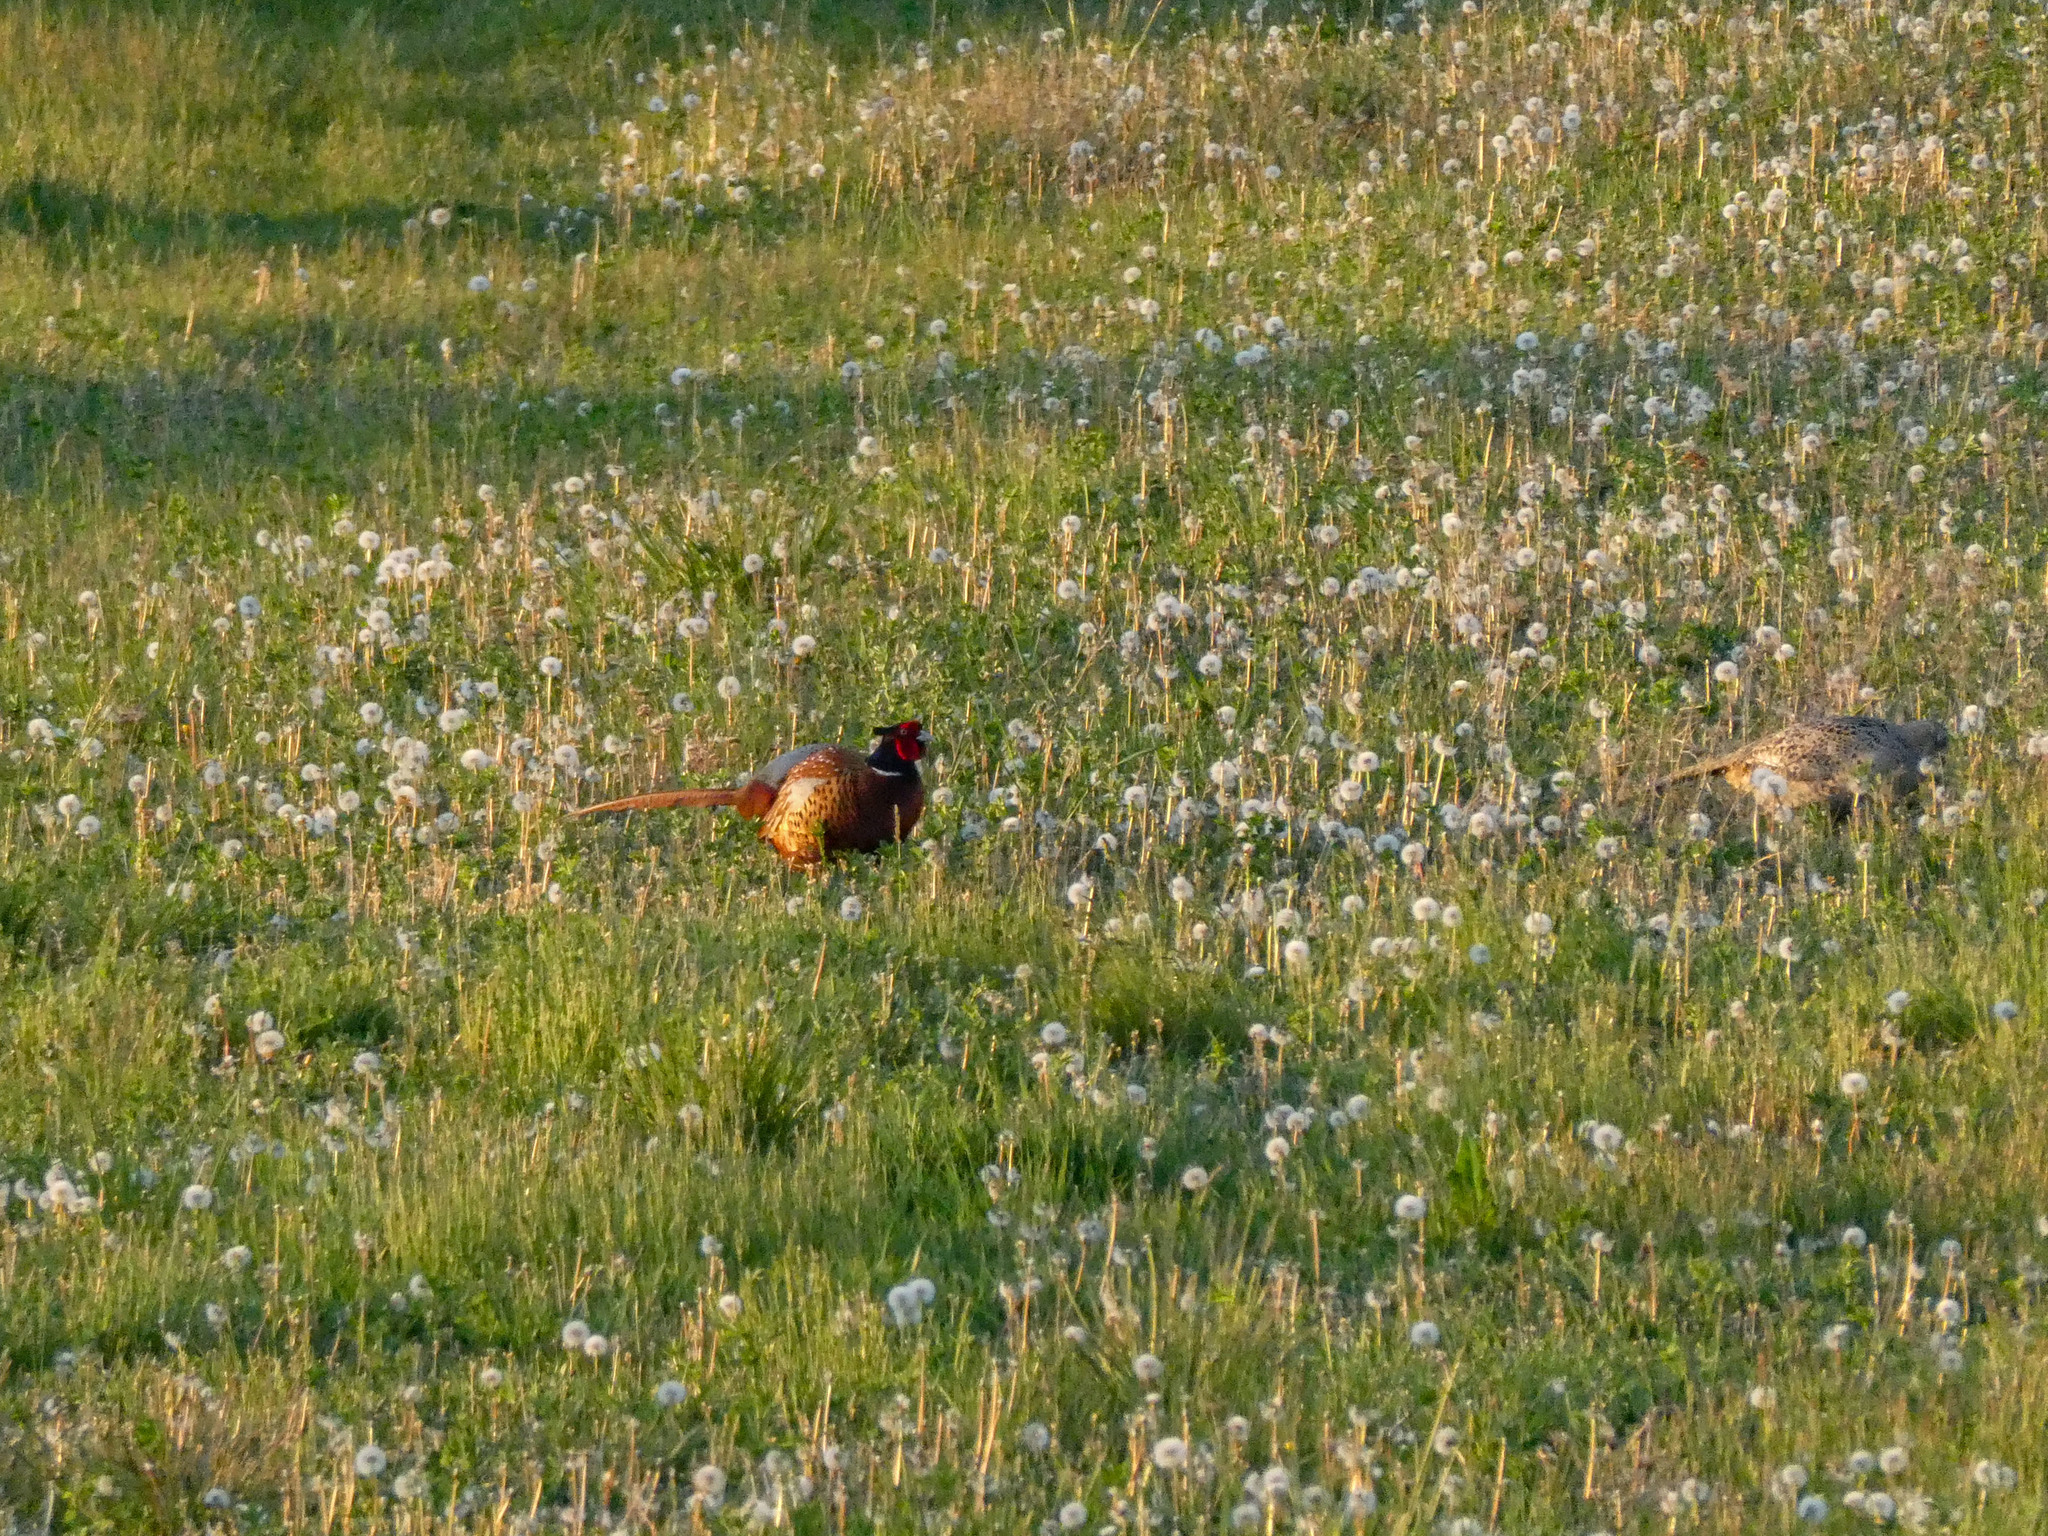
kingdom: Animalia
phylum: Chordata
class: Aves
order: Galliformes
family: Phasianidae
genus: Phasianus
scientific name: Phasianus colchicus
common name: Common pheasant
